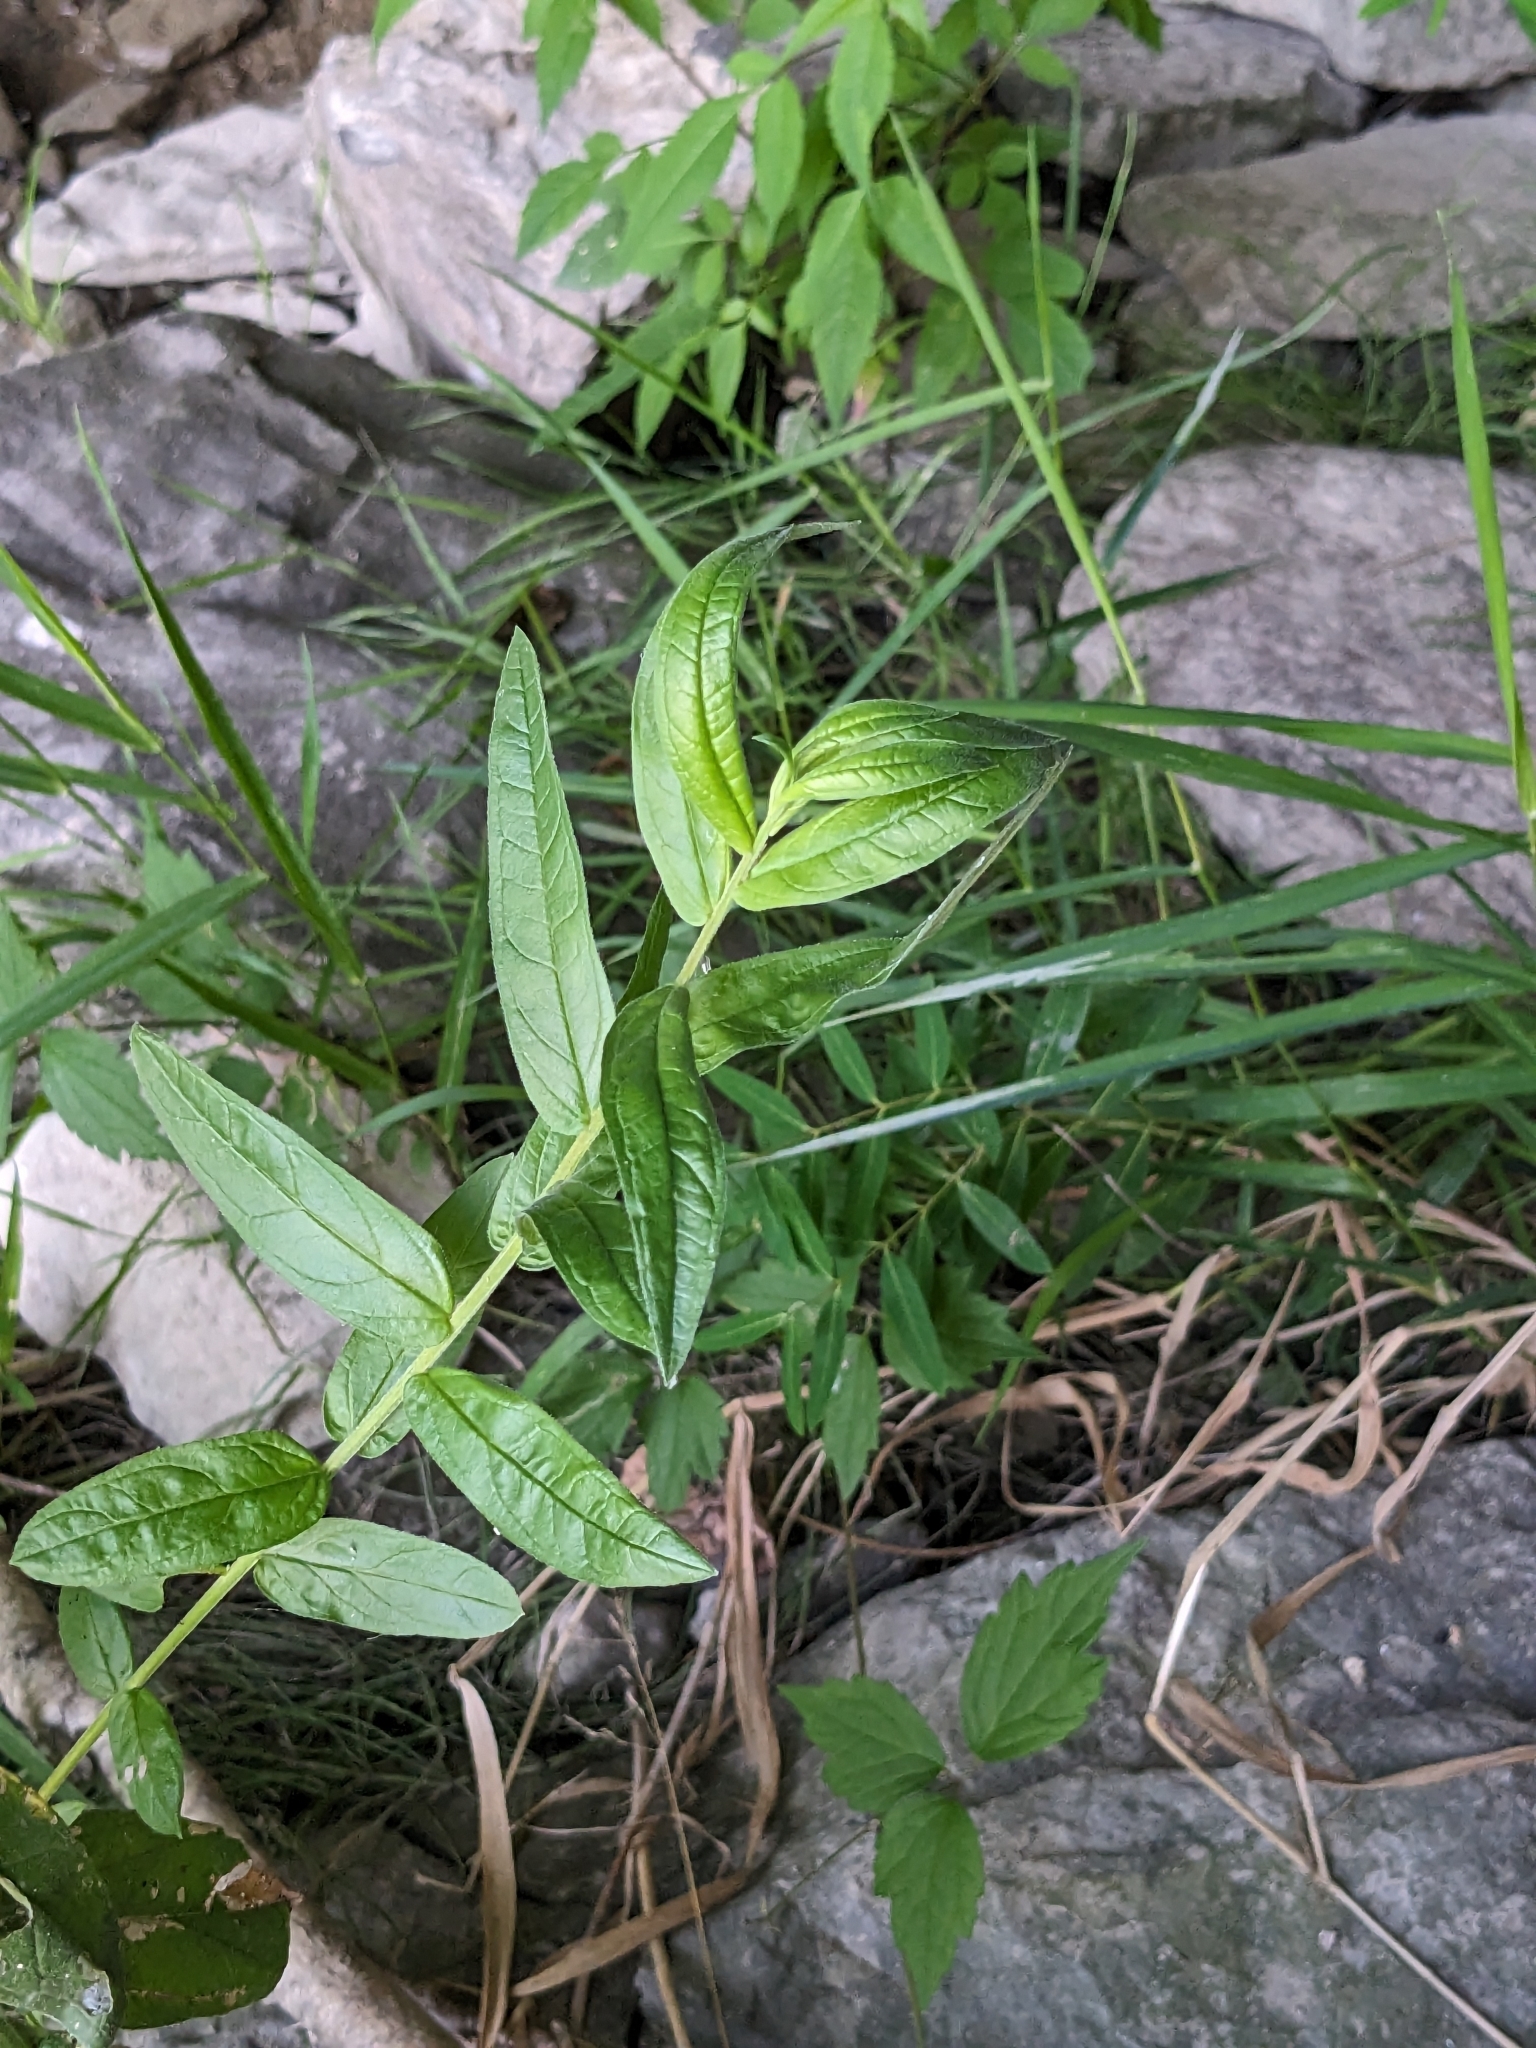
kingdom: Plantae
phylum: Tracheophyta
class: Magnoliopsida
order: Myrtales
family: Lythraceae
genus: Lythrum
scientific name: Lythrum salicaria
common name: Purple loosestrife
